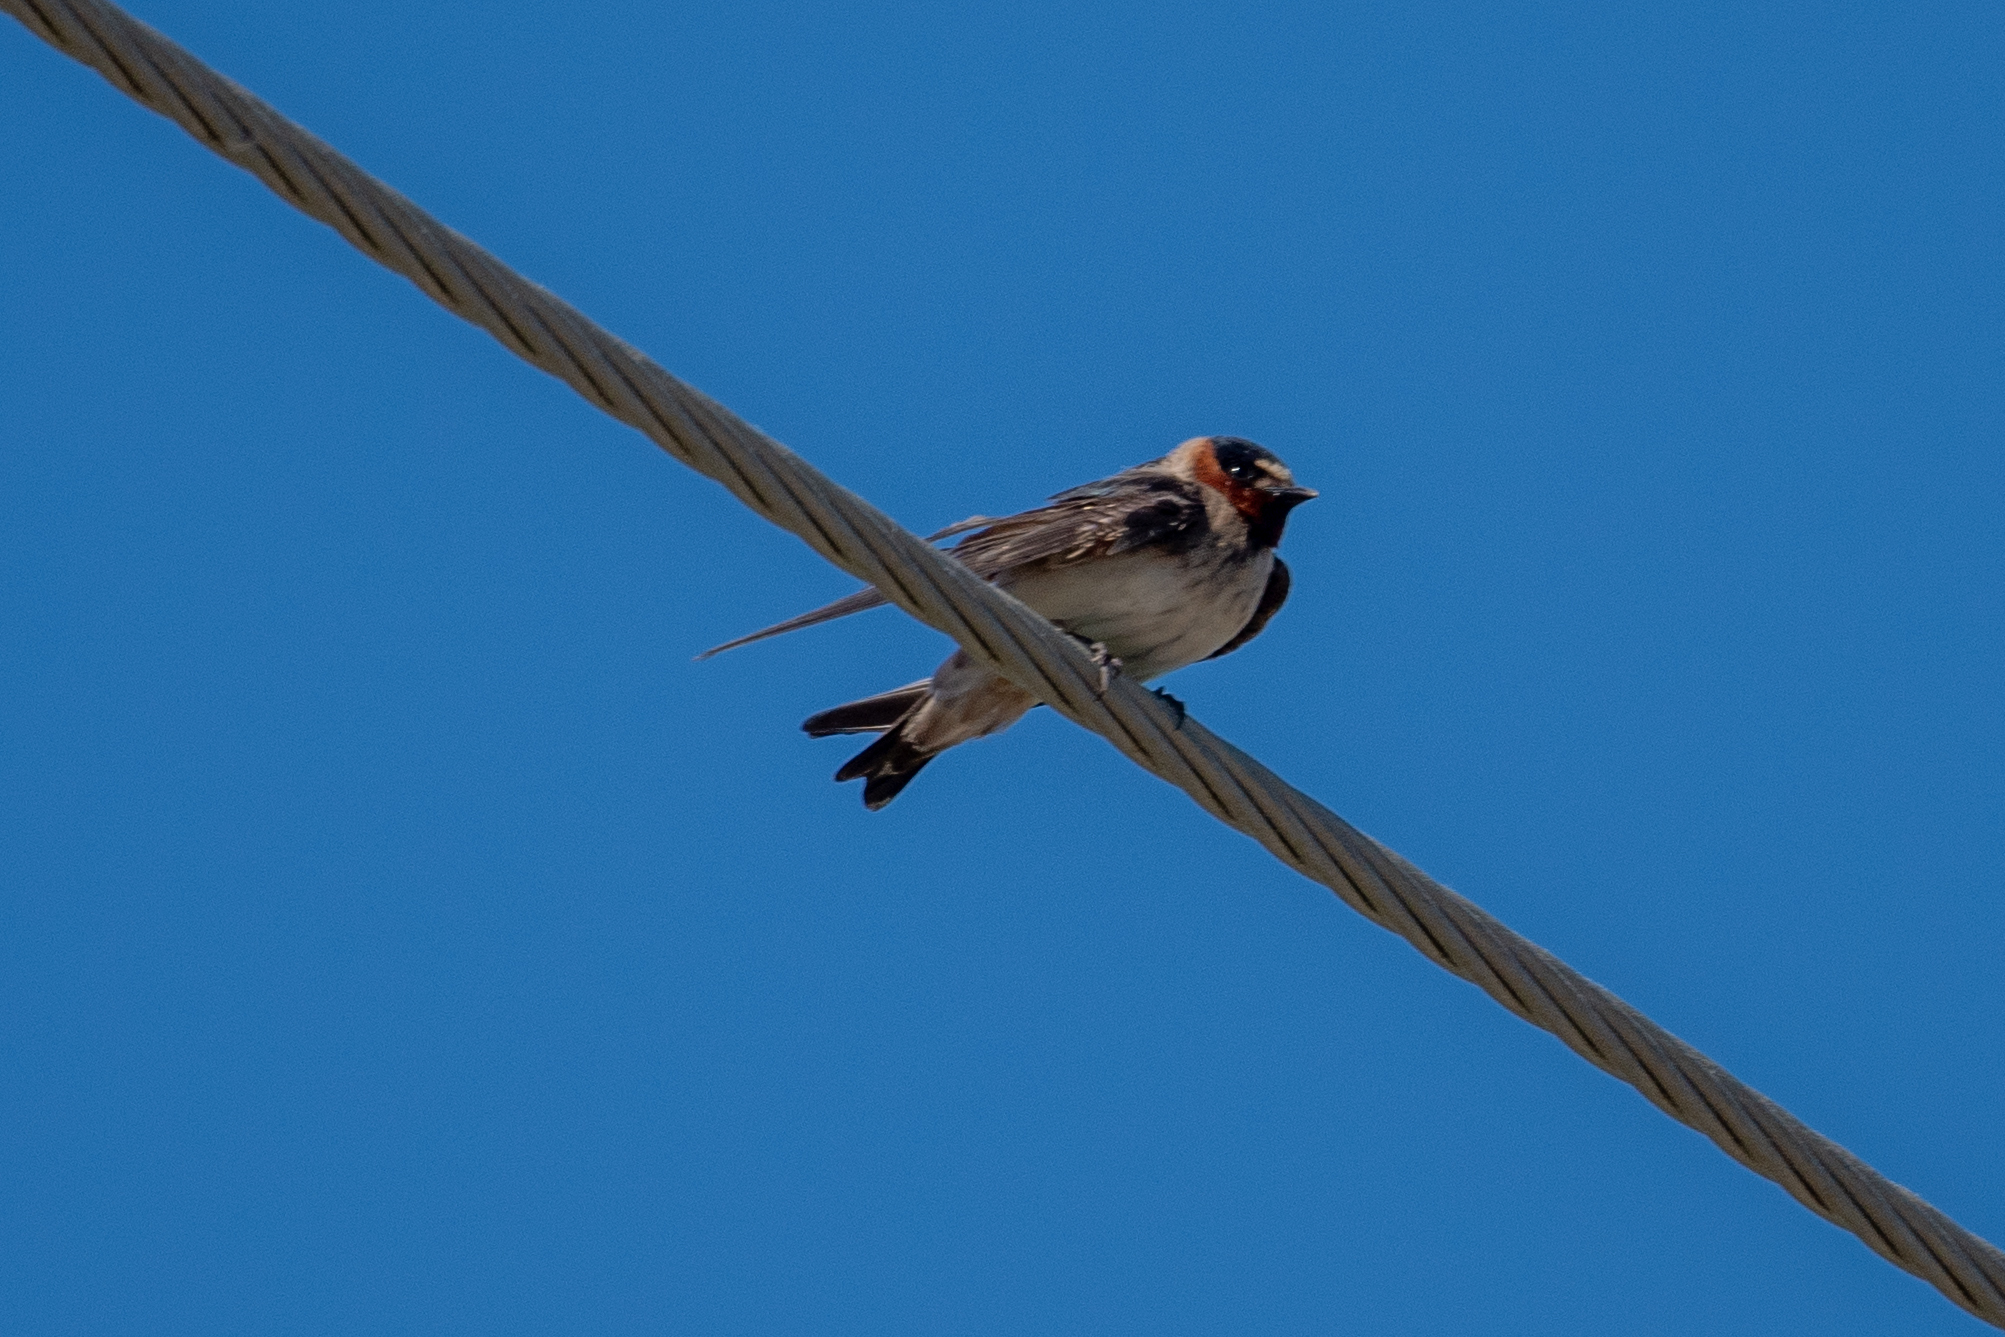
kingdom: Animalia
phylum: Chordata
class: Aves
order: Passeriformes
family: Hirundinidae
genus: Petrochelidon
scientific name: Petrochelidon pyrrhonota
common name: American cliff swallow
